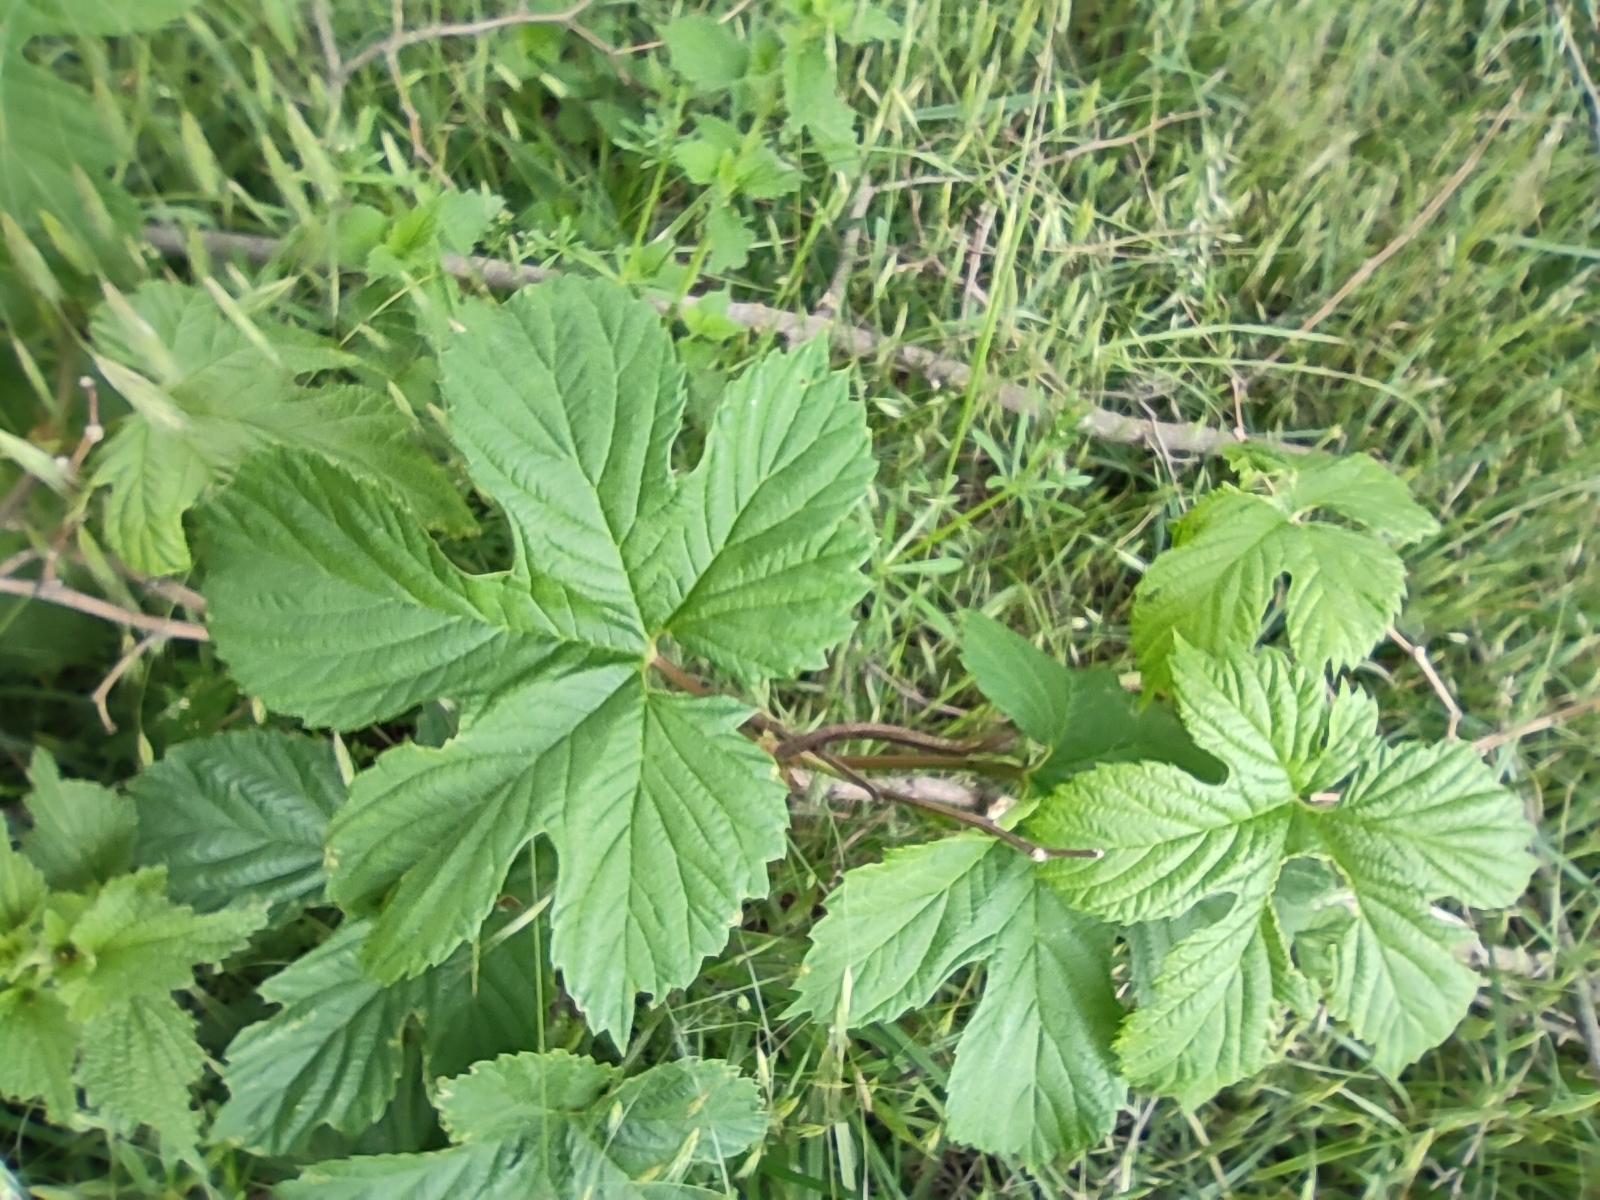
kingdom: Plantae
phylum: Tracheophyta
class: Magnoliopsida
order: Rosales
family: Cannabaceae
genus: Humulus
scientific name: Humulus lupulus
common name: Hop
